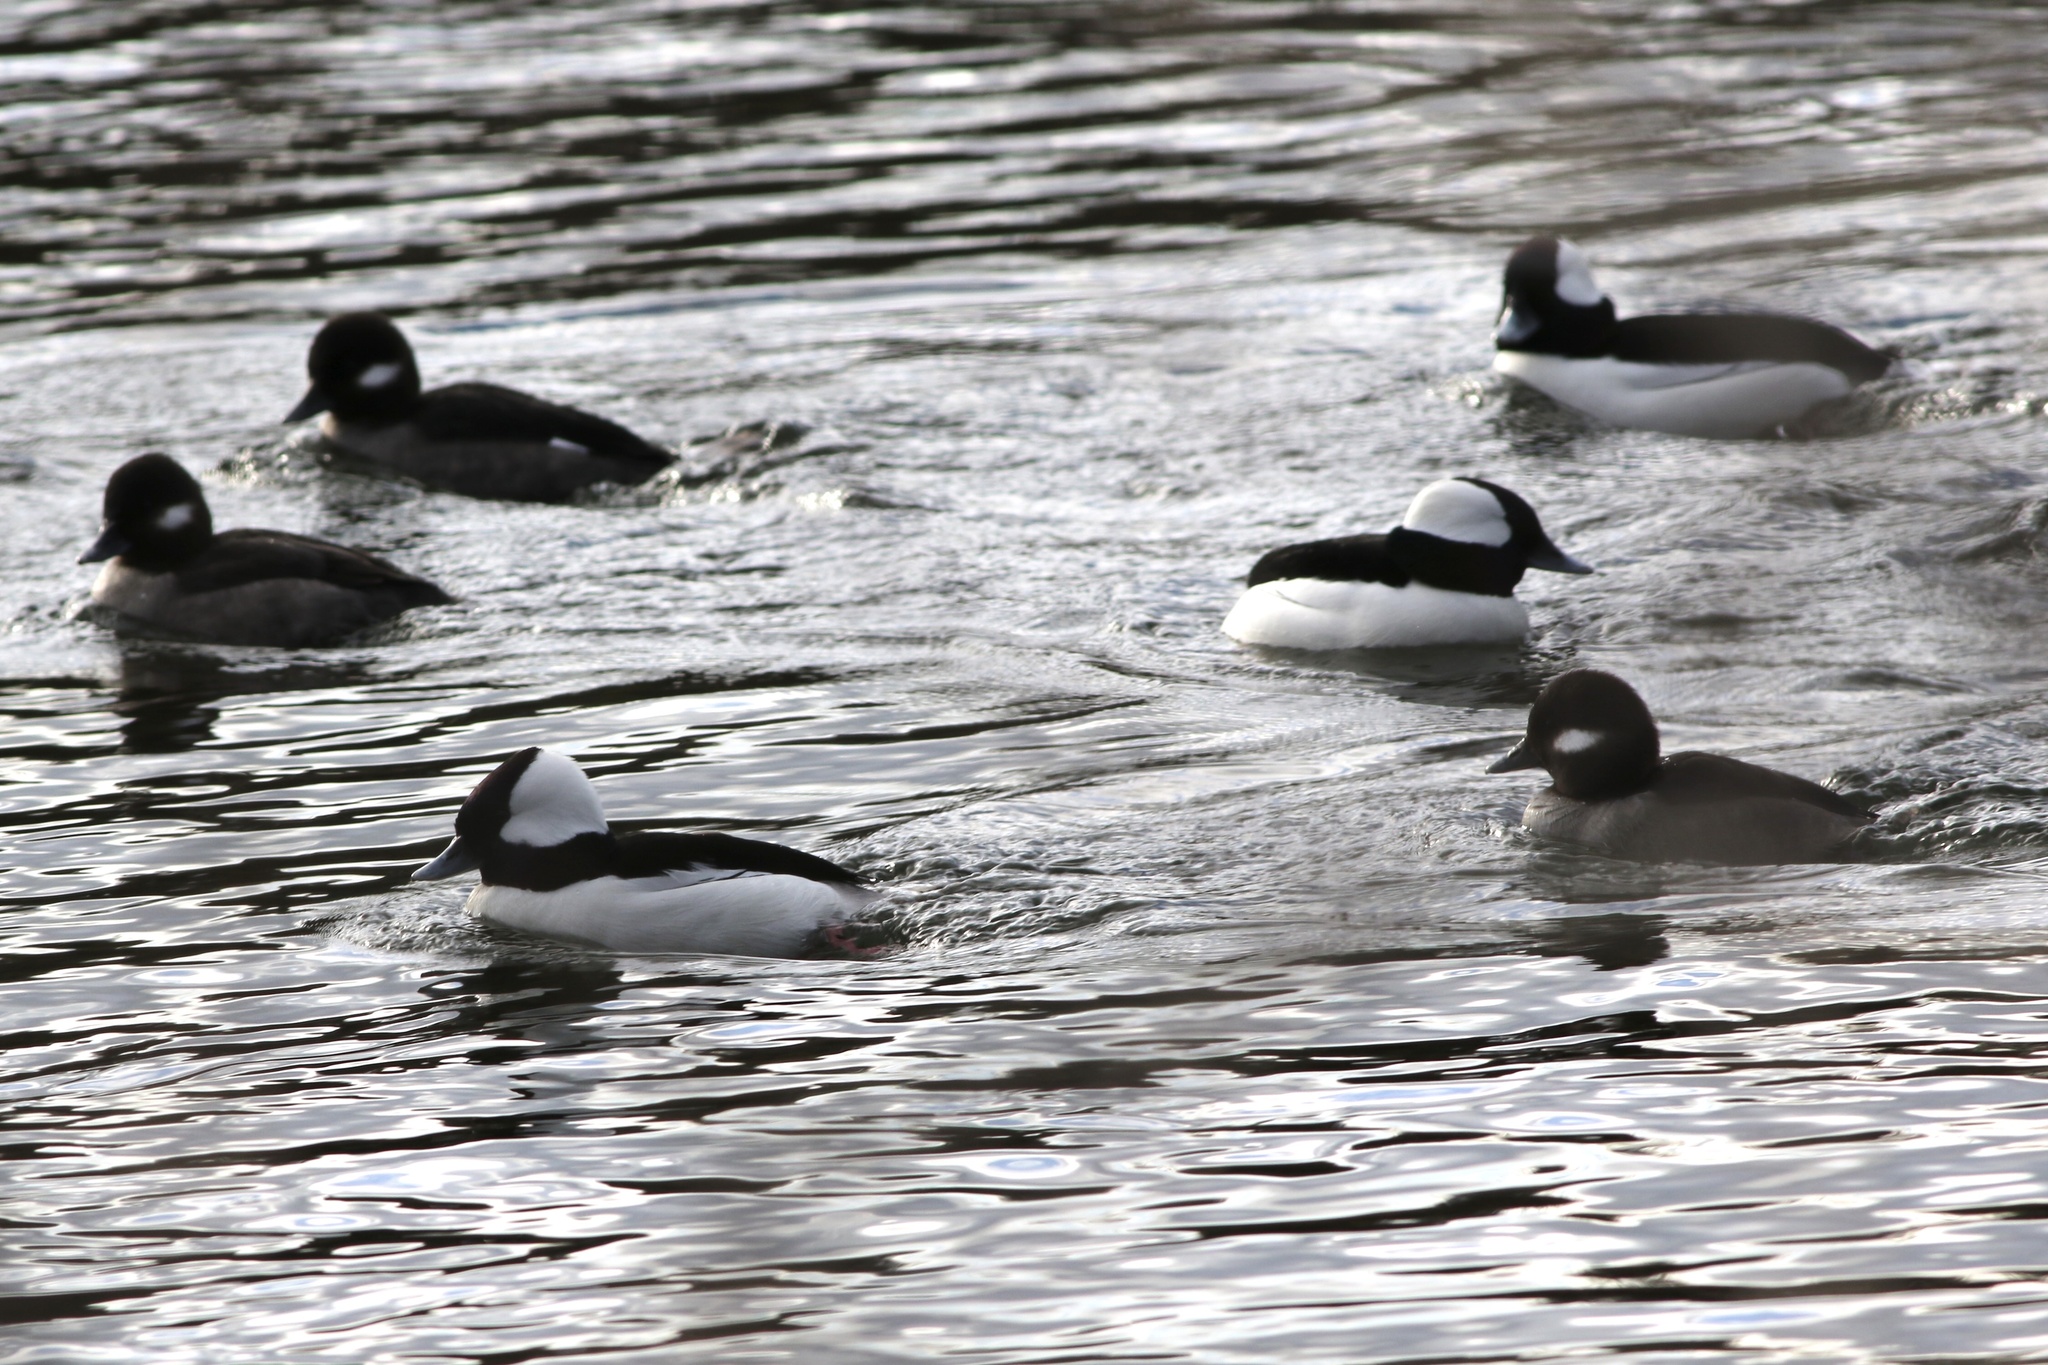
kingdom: Animalia
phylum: Chordata
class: Aves
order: Anseriformes
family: Anatidae
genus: Bucephala
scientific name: Bucephala albeola
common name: Bufflehead
